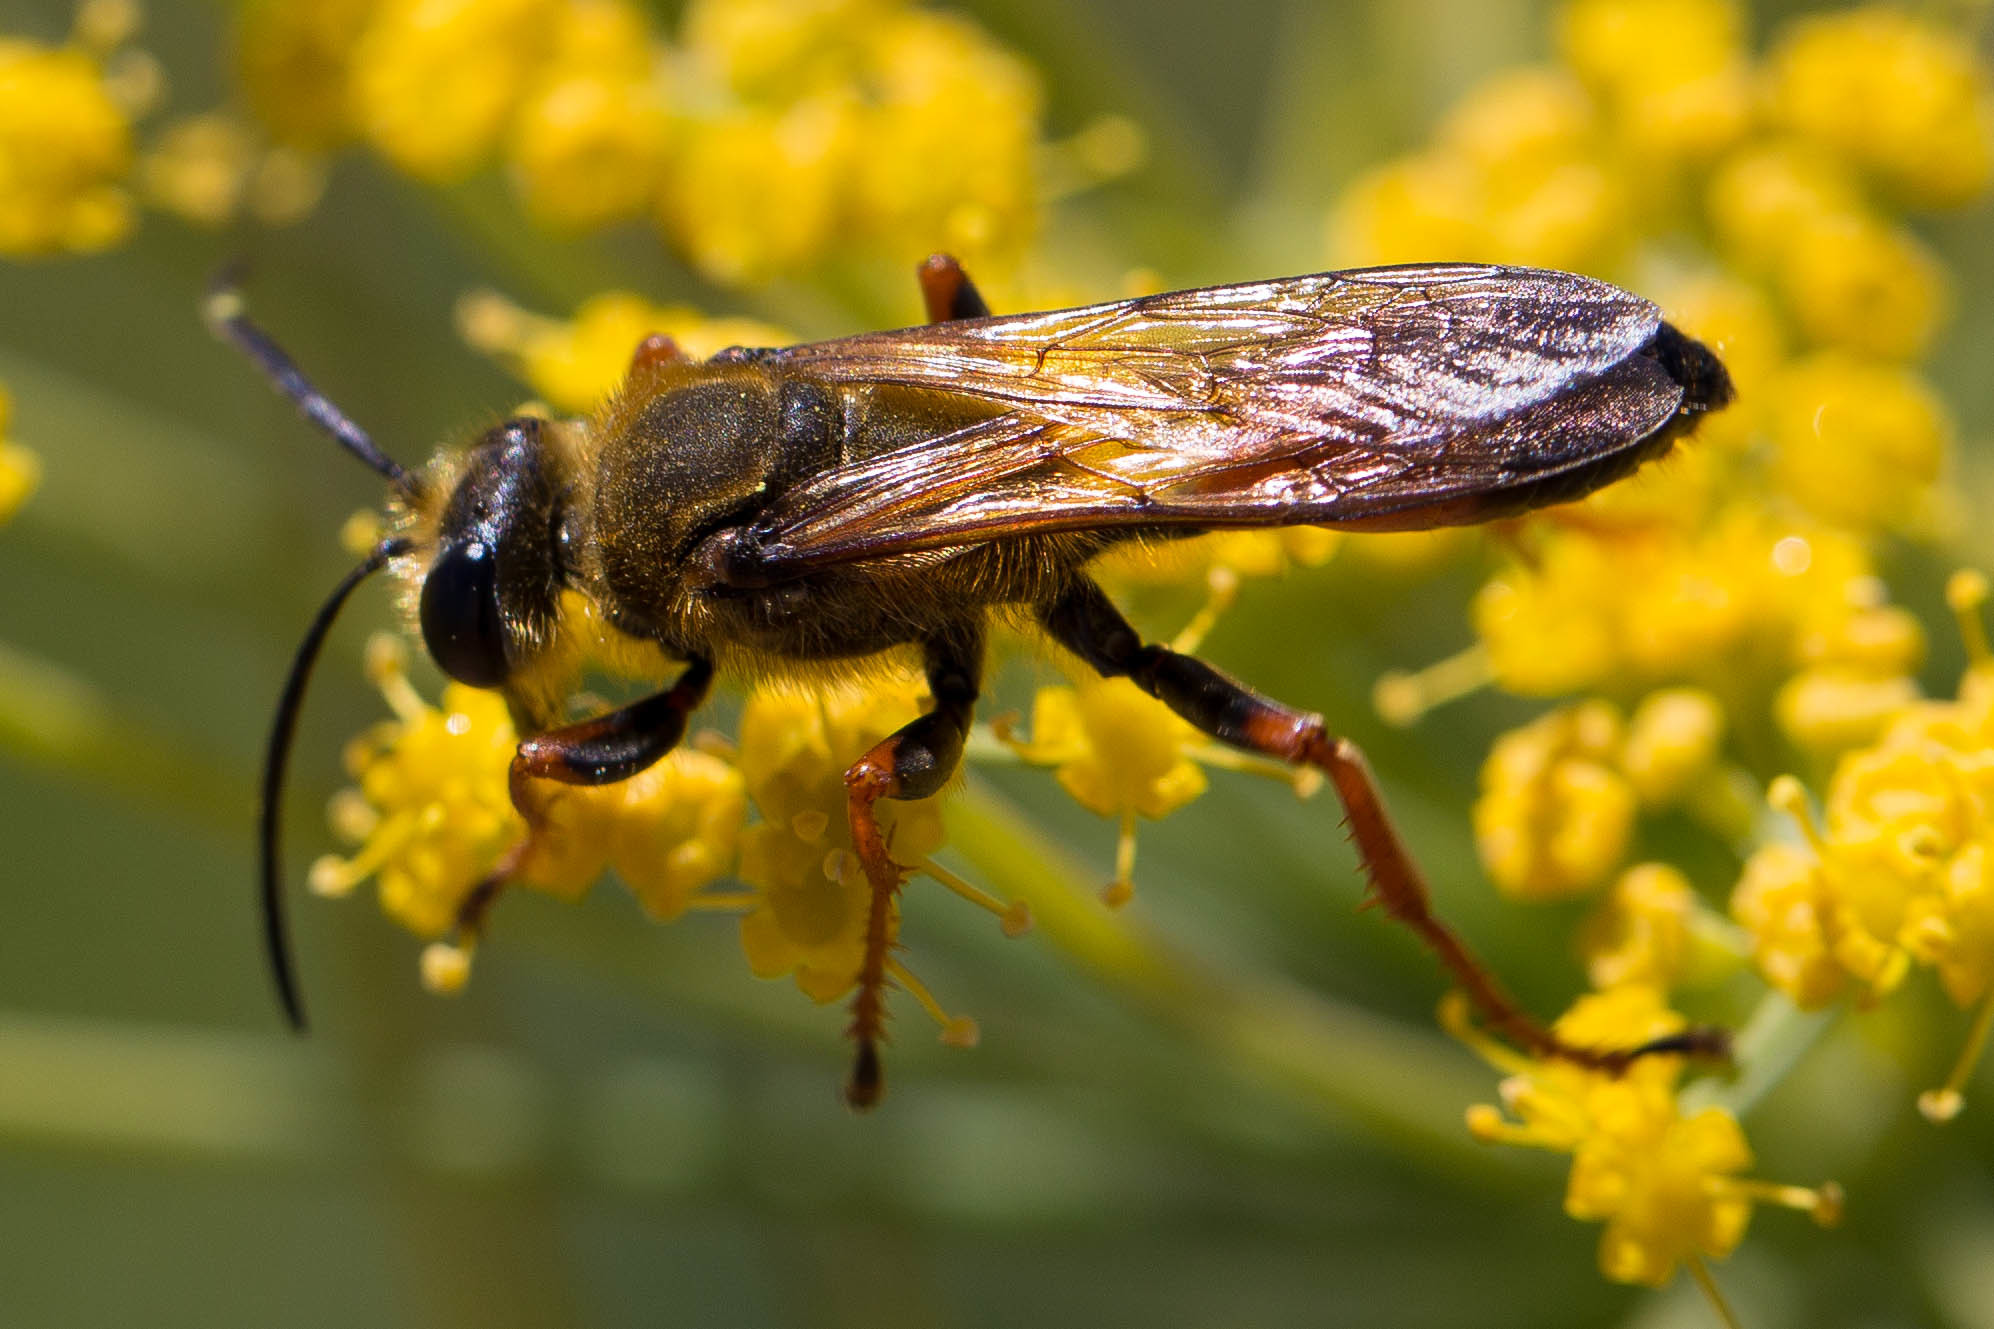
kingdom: Animalia
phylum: Arthropoda
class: Insecta
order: Hymenoptera
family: Sphecidae
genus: Sphex
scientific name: Sphex ichneumoneus
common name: Great golden digger wasp
